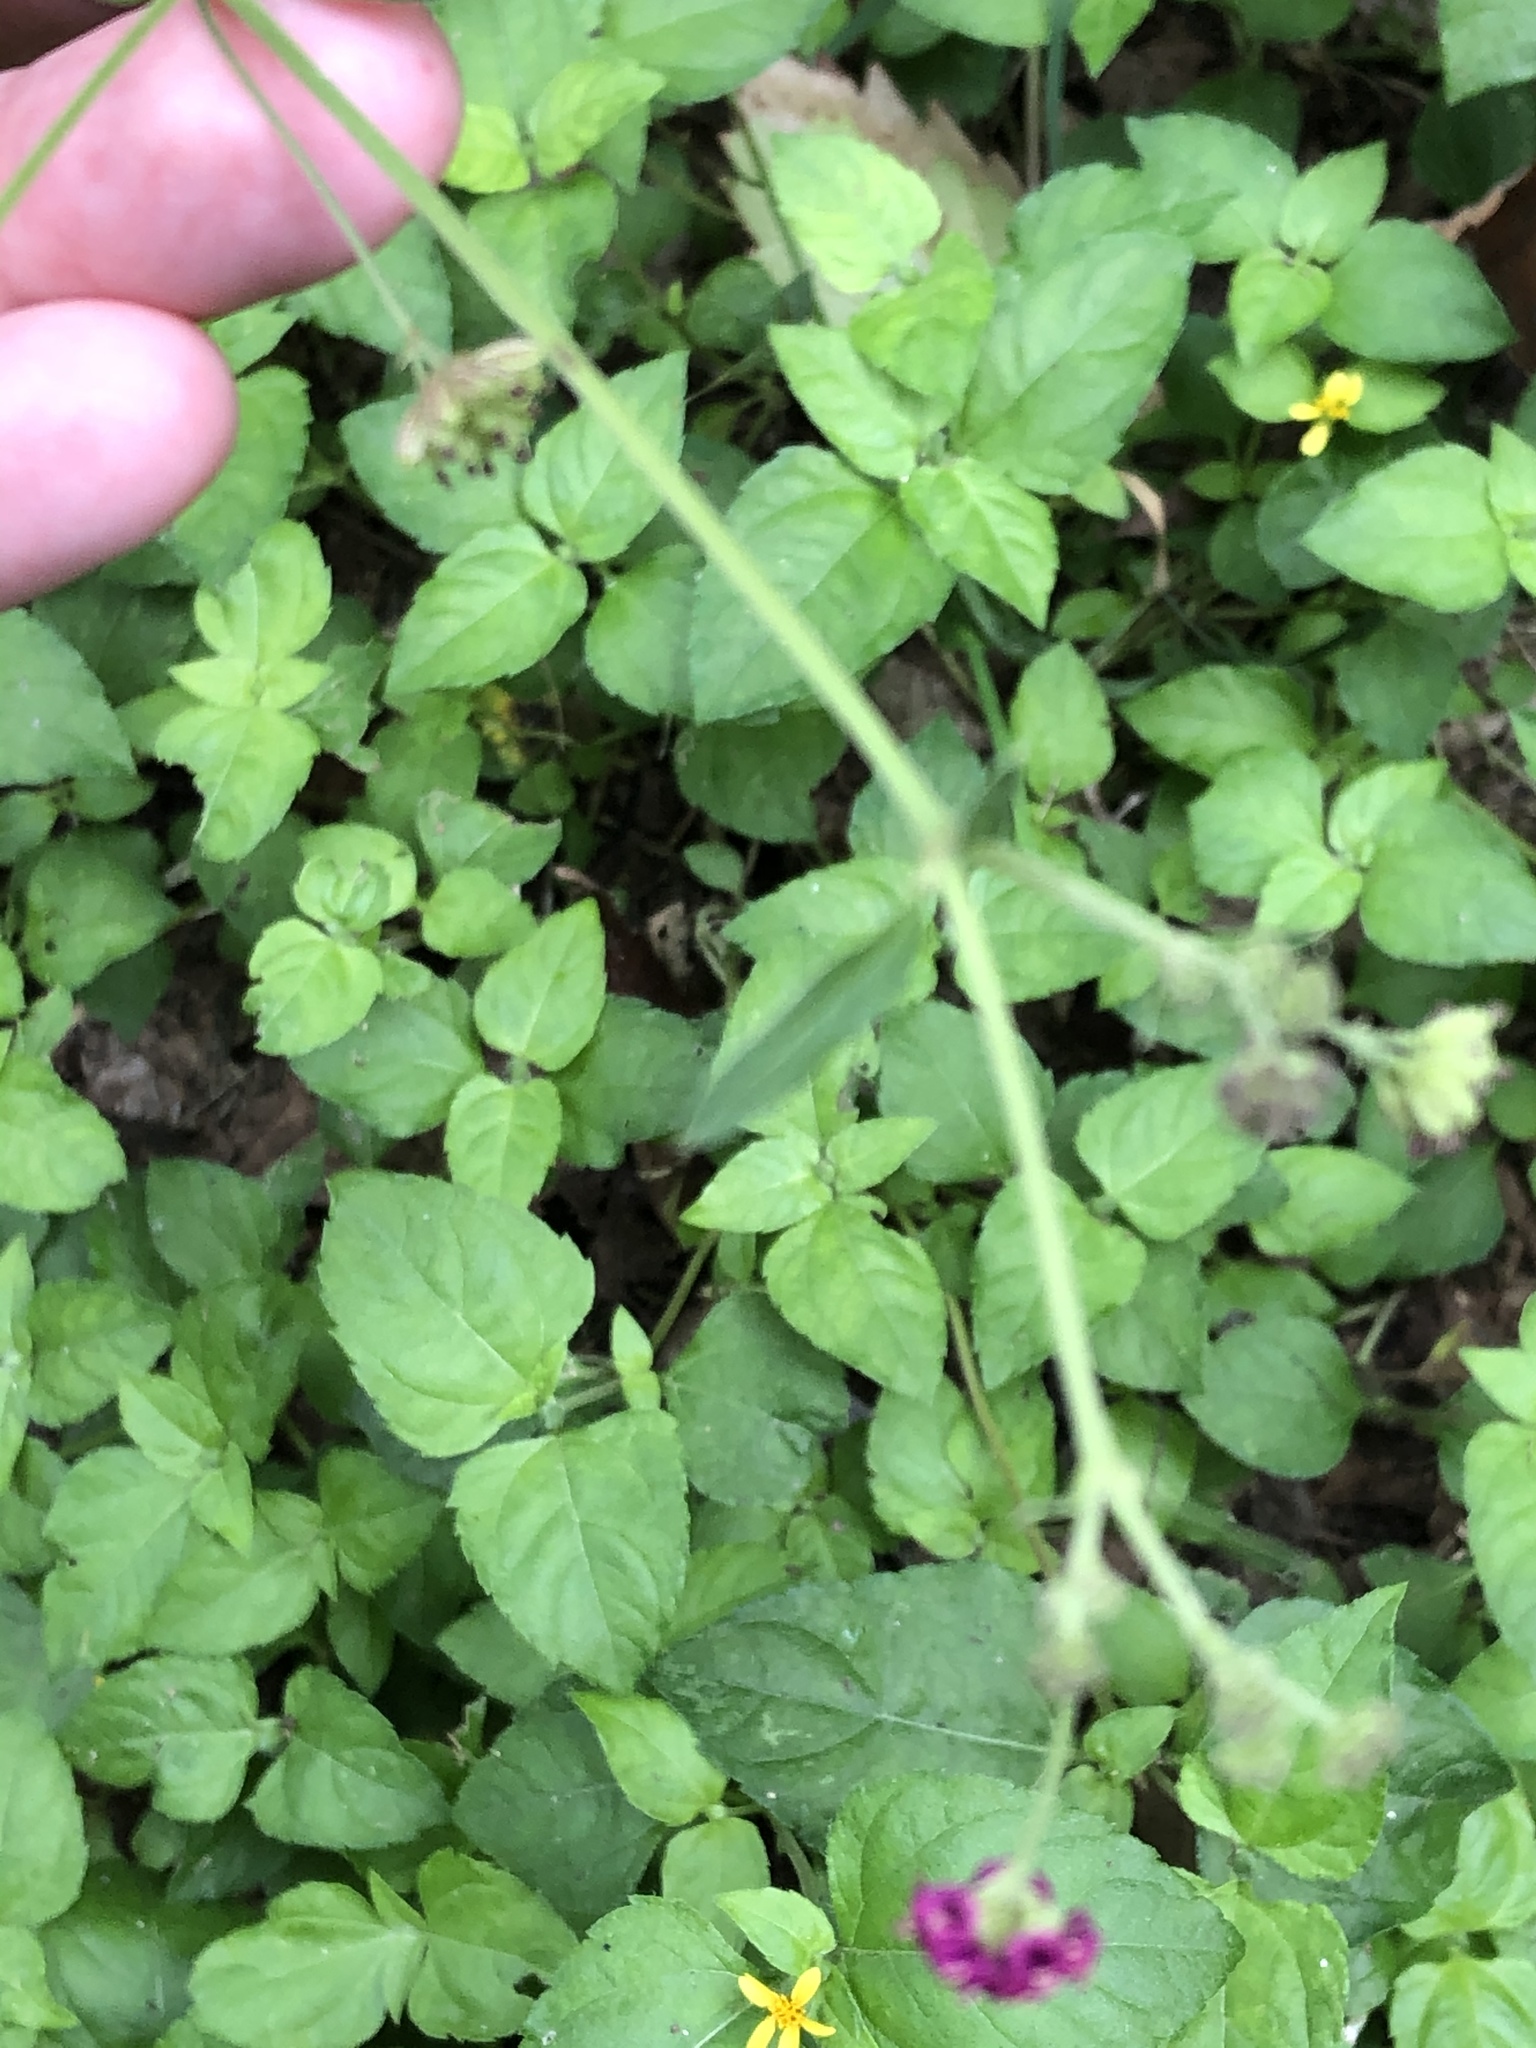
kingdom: Plantae
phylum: Tracheophyta
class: Magnoliopsida
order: Caryophyllales
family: Nyctaginaceae
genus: Boerhavia
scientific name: Boerhavia coccinea
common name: Scarlet spiderling
